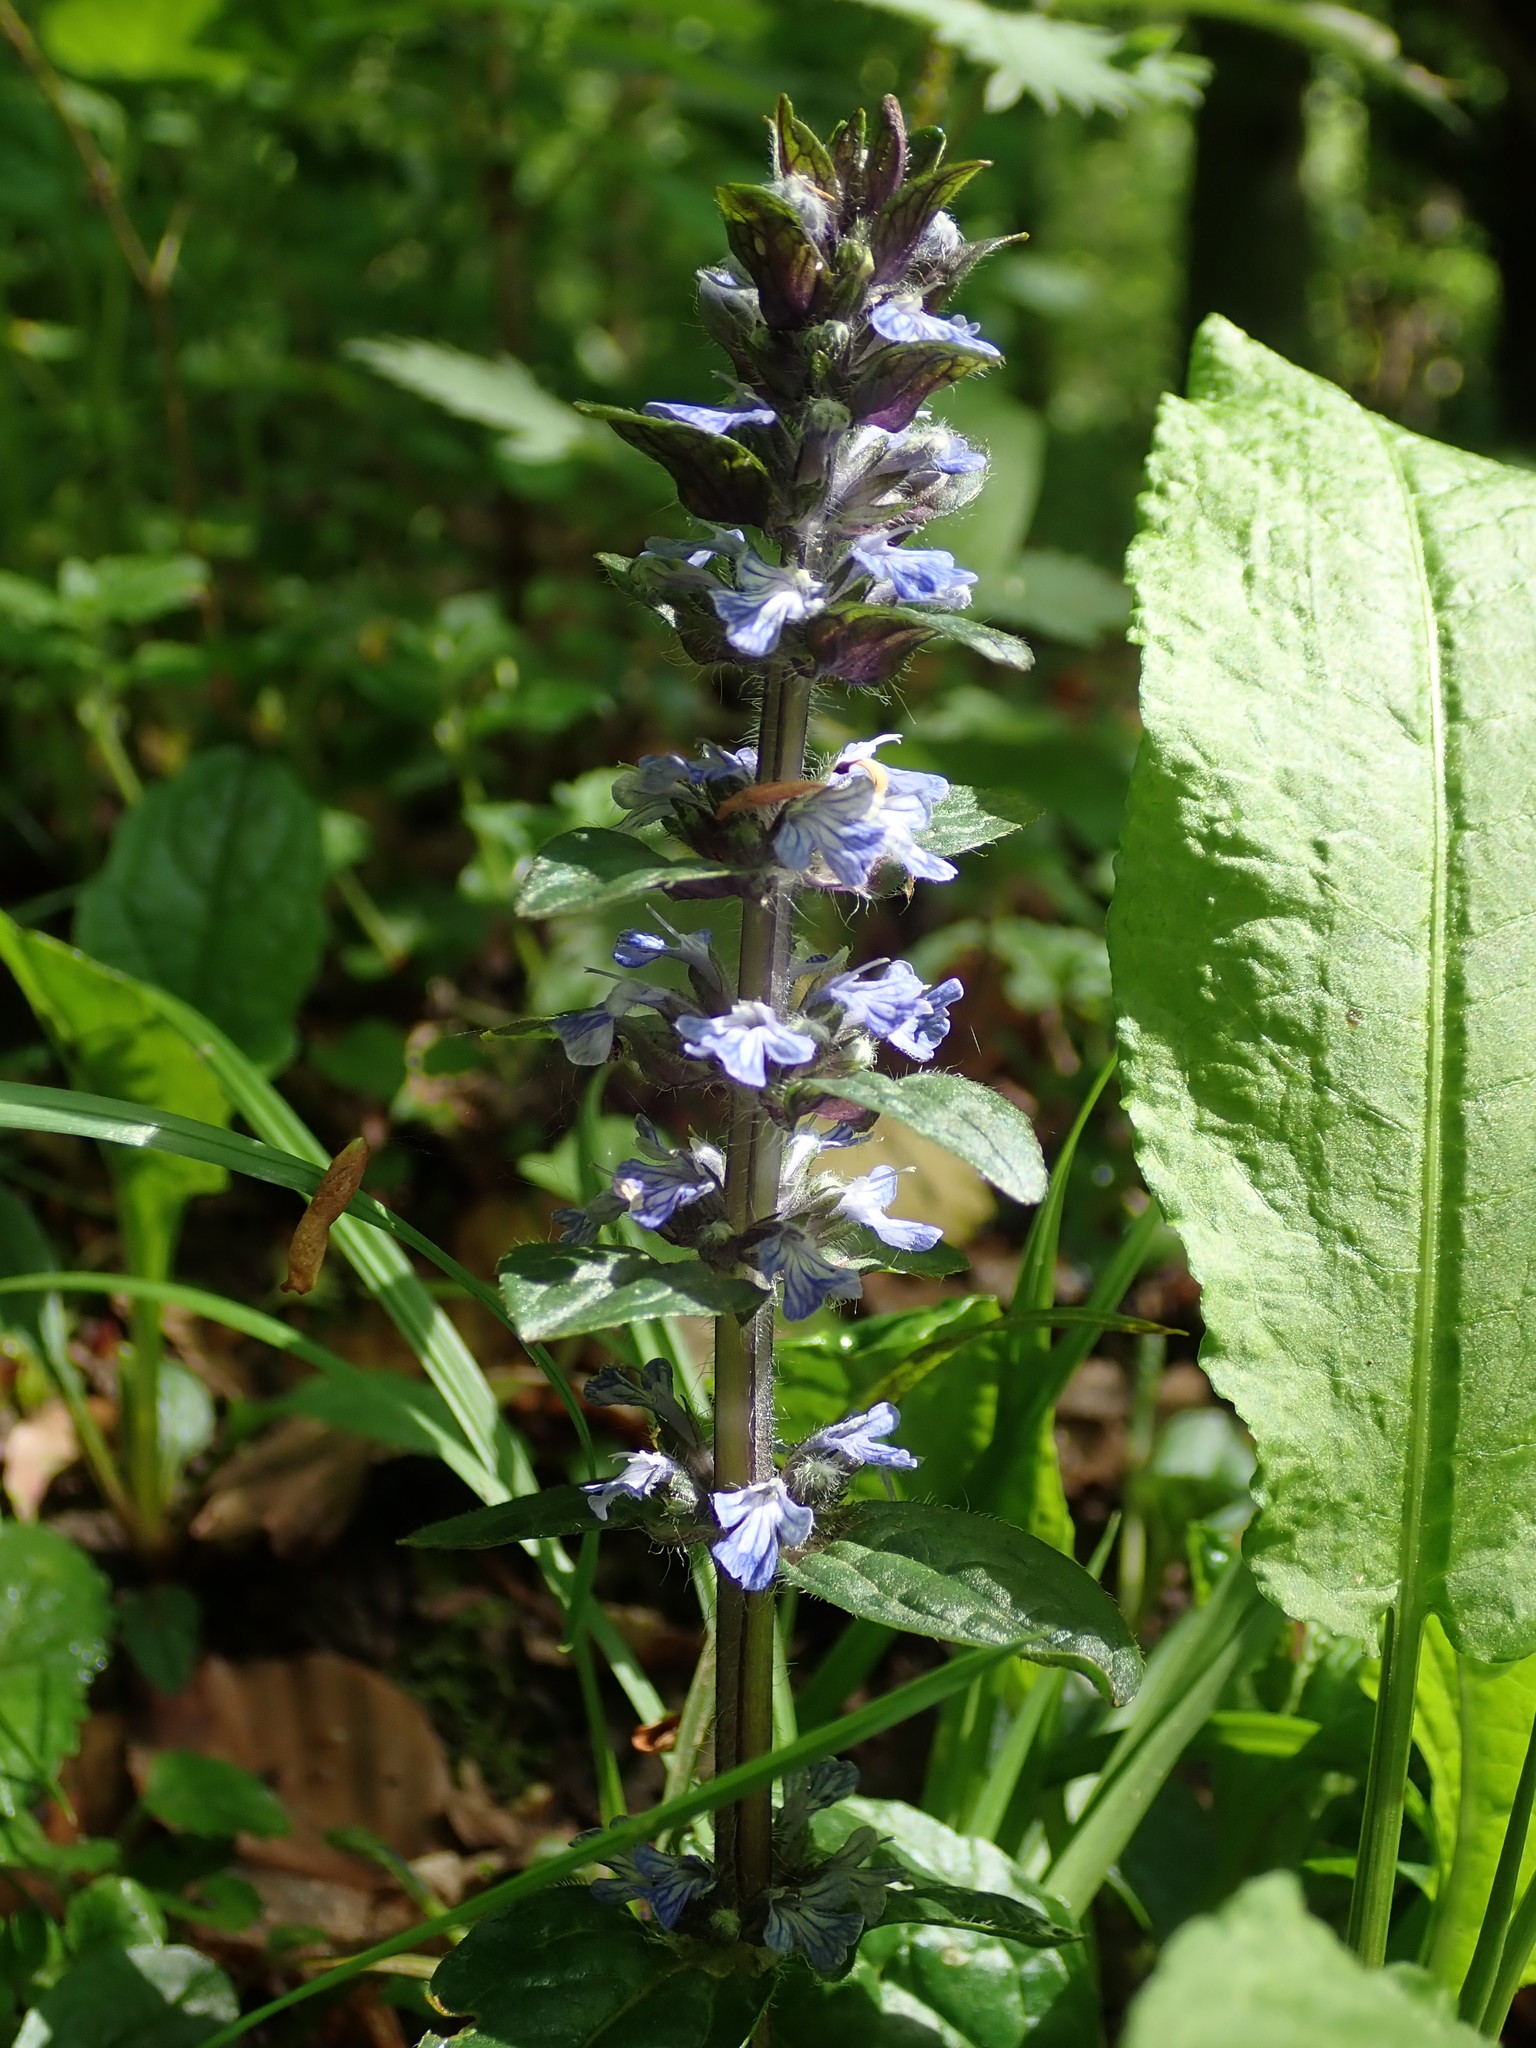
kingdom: Plantae
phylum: Tracheophyta
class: Magnoliopsida
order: Lamiales
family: Lamiaceae
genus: Ajuga
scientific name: Ajuga reptans
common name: Bugle
